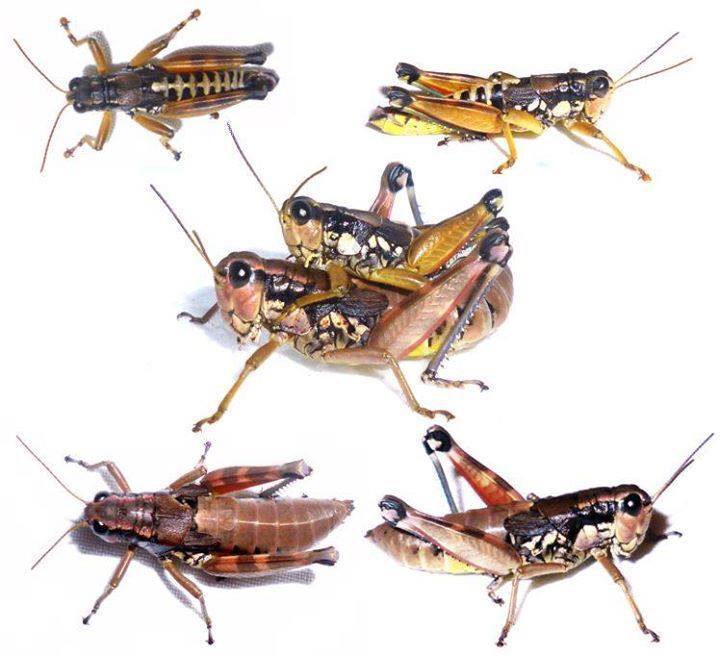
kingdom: Animalia
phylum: Arthropoda
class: Insecta
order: Orthoptera
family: Acrididae
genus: Podisma
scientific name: Podisma pedestris
